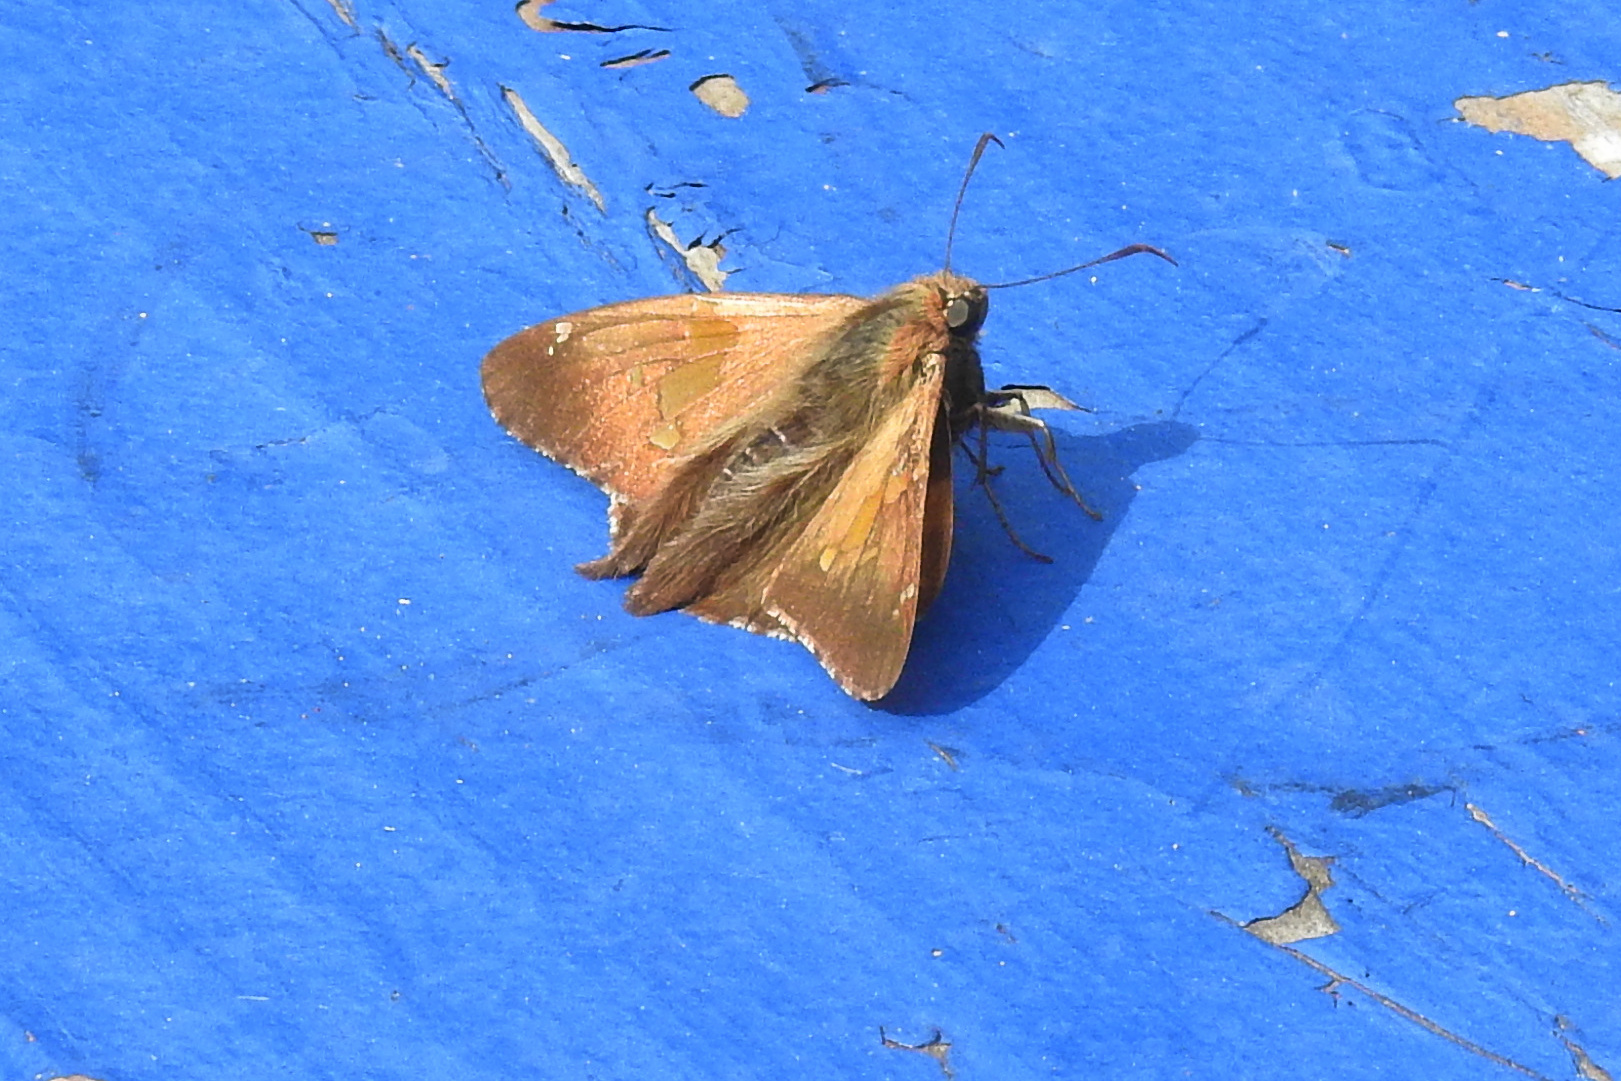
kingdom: Animalia
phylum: Arthropoda
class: Insecta
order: Lepidoptera
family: Hesperiidae
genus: Epargyreus
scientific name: Epargyreus clarus
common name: Silver-spotted skipper
